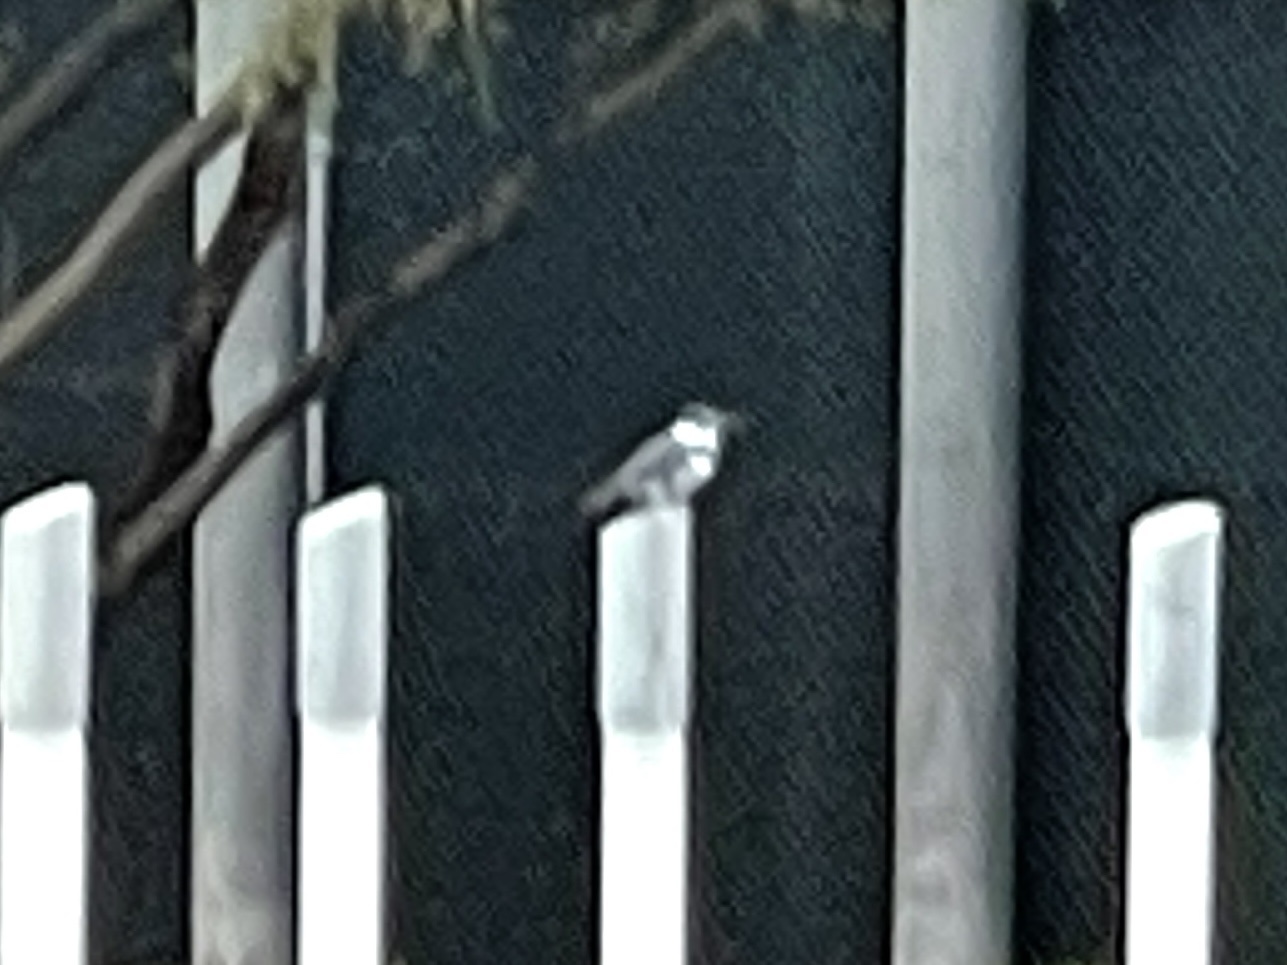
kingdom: Animalia
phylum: Chordata
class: Aves
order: Coraciiformes
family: Alcedinidae
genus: Megaceryle
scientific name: Megaceryle alcyon
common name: Belted kingfisher
